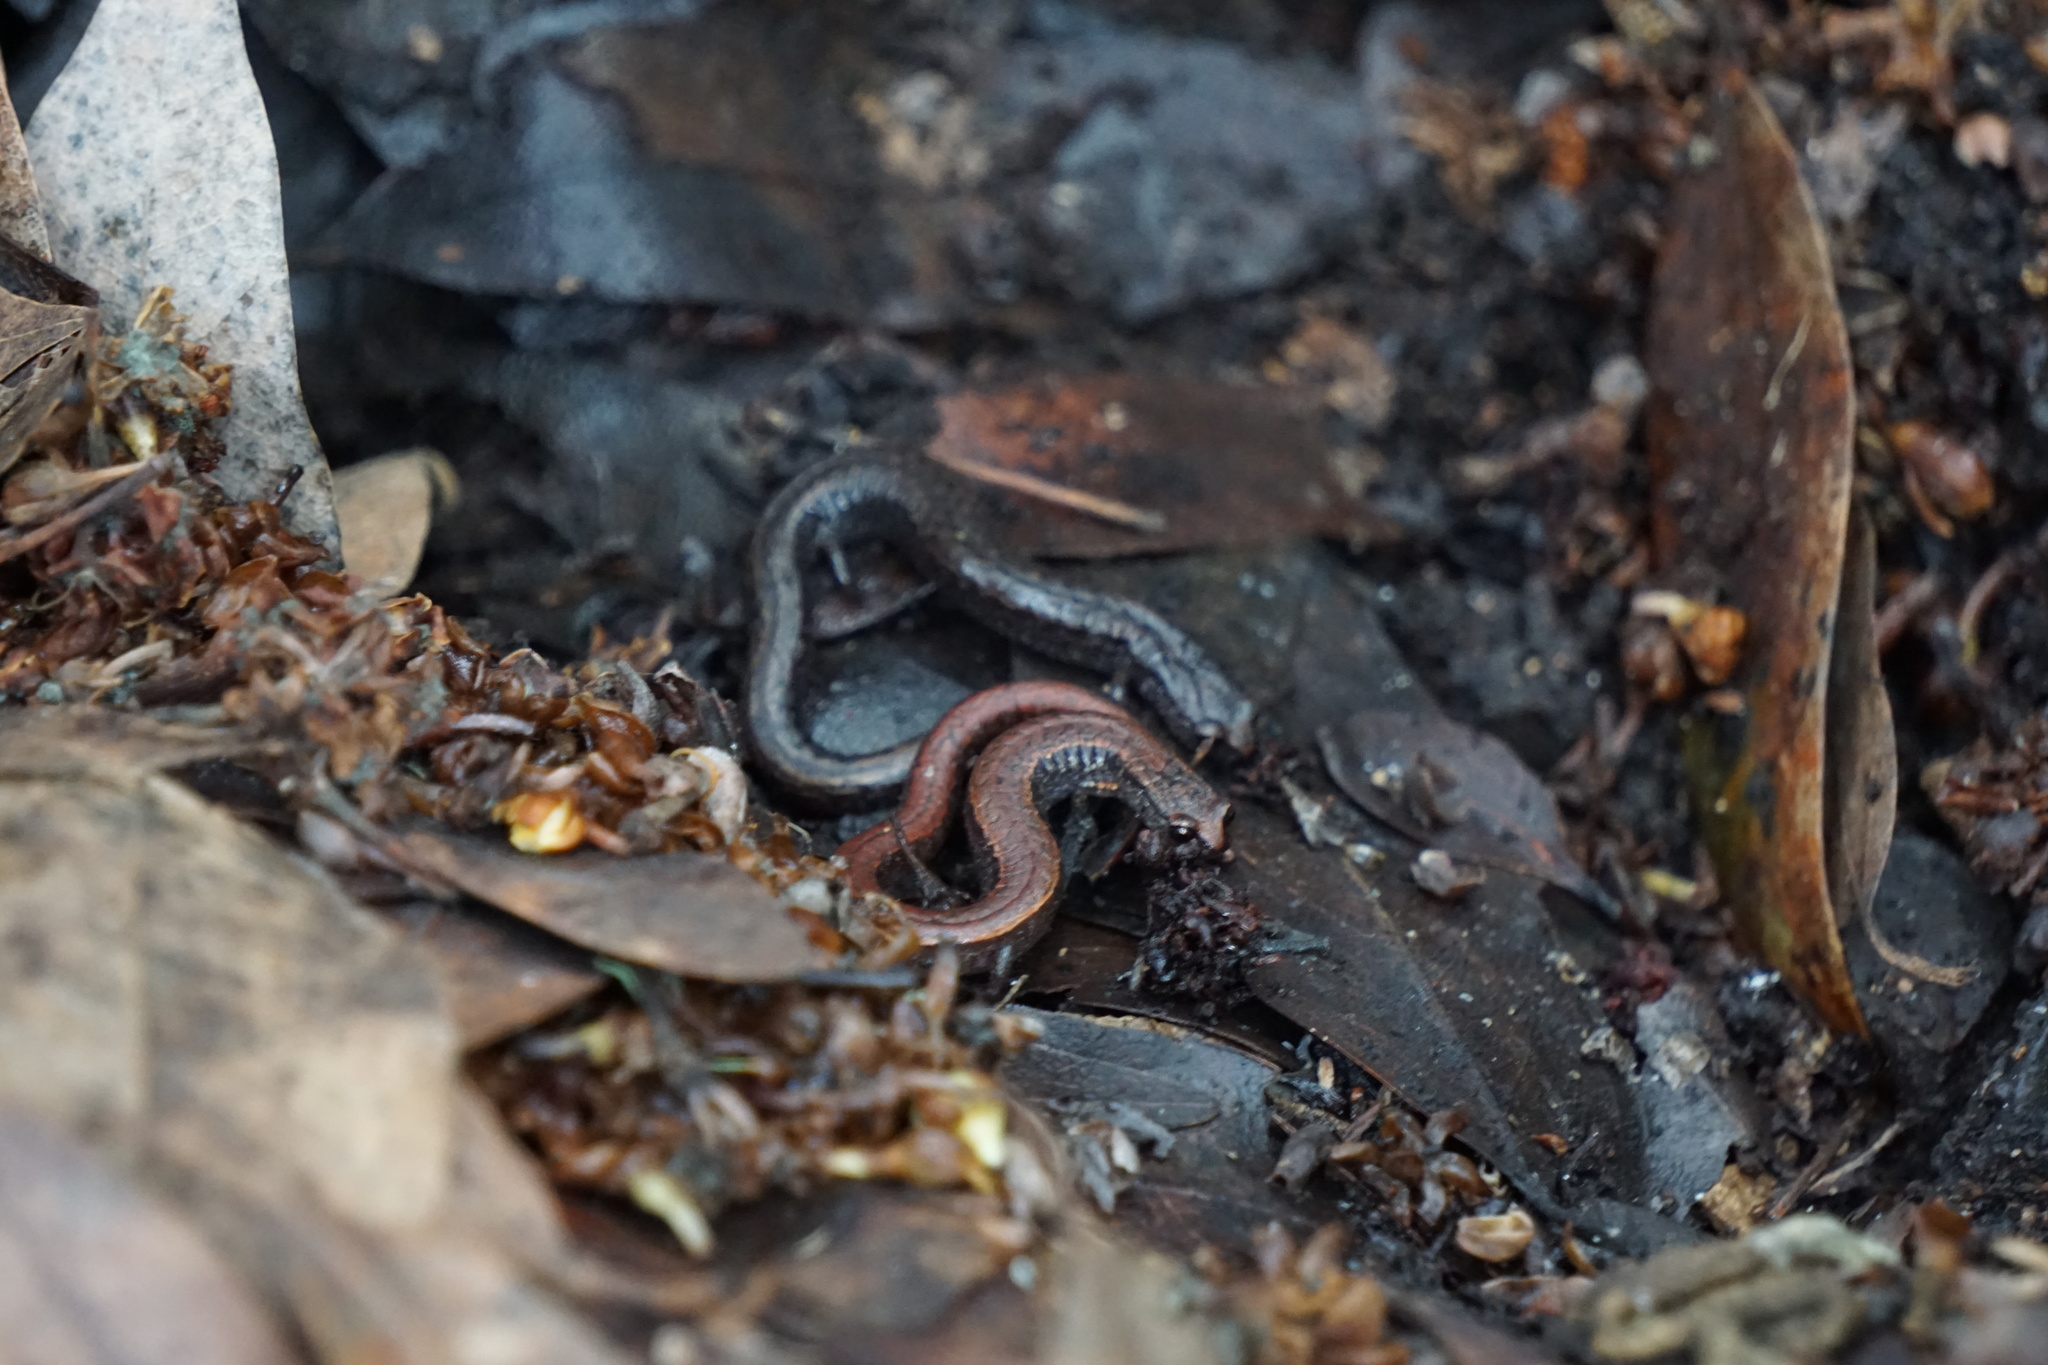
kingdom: Animalia
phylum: Chordata
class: Amphibia
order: Caudata
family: Plethodontidae
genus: Batrachoseps
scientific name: Batrachoseps attenuatus
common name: California slender salamander
